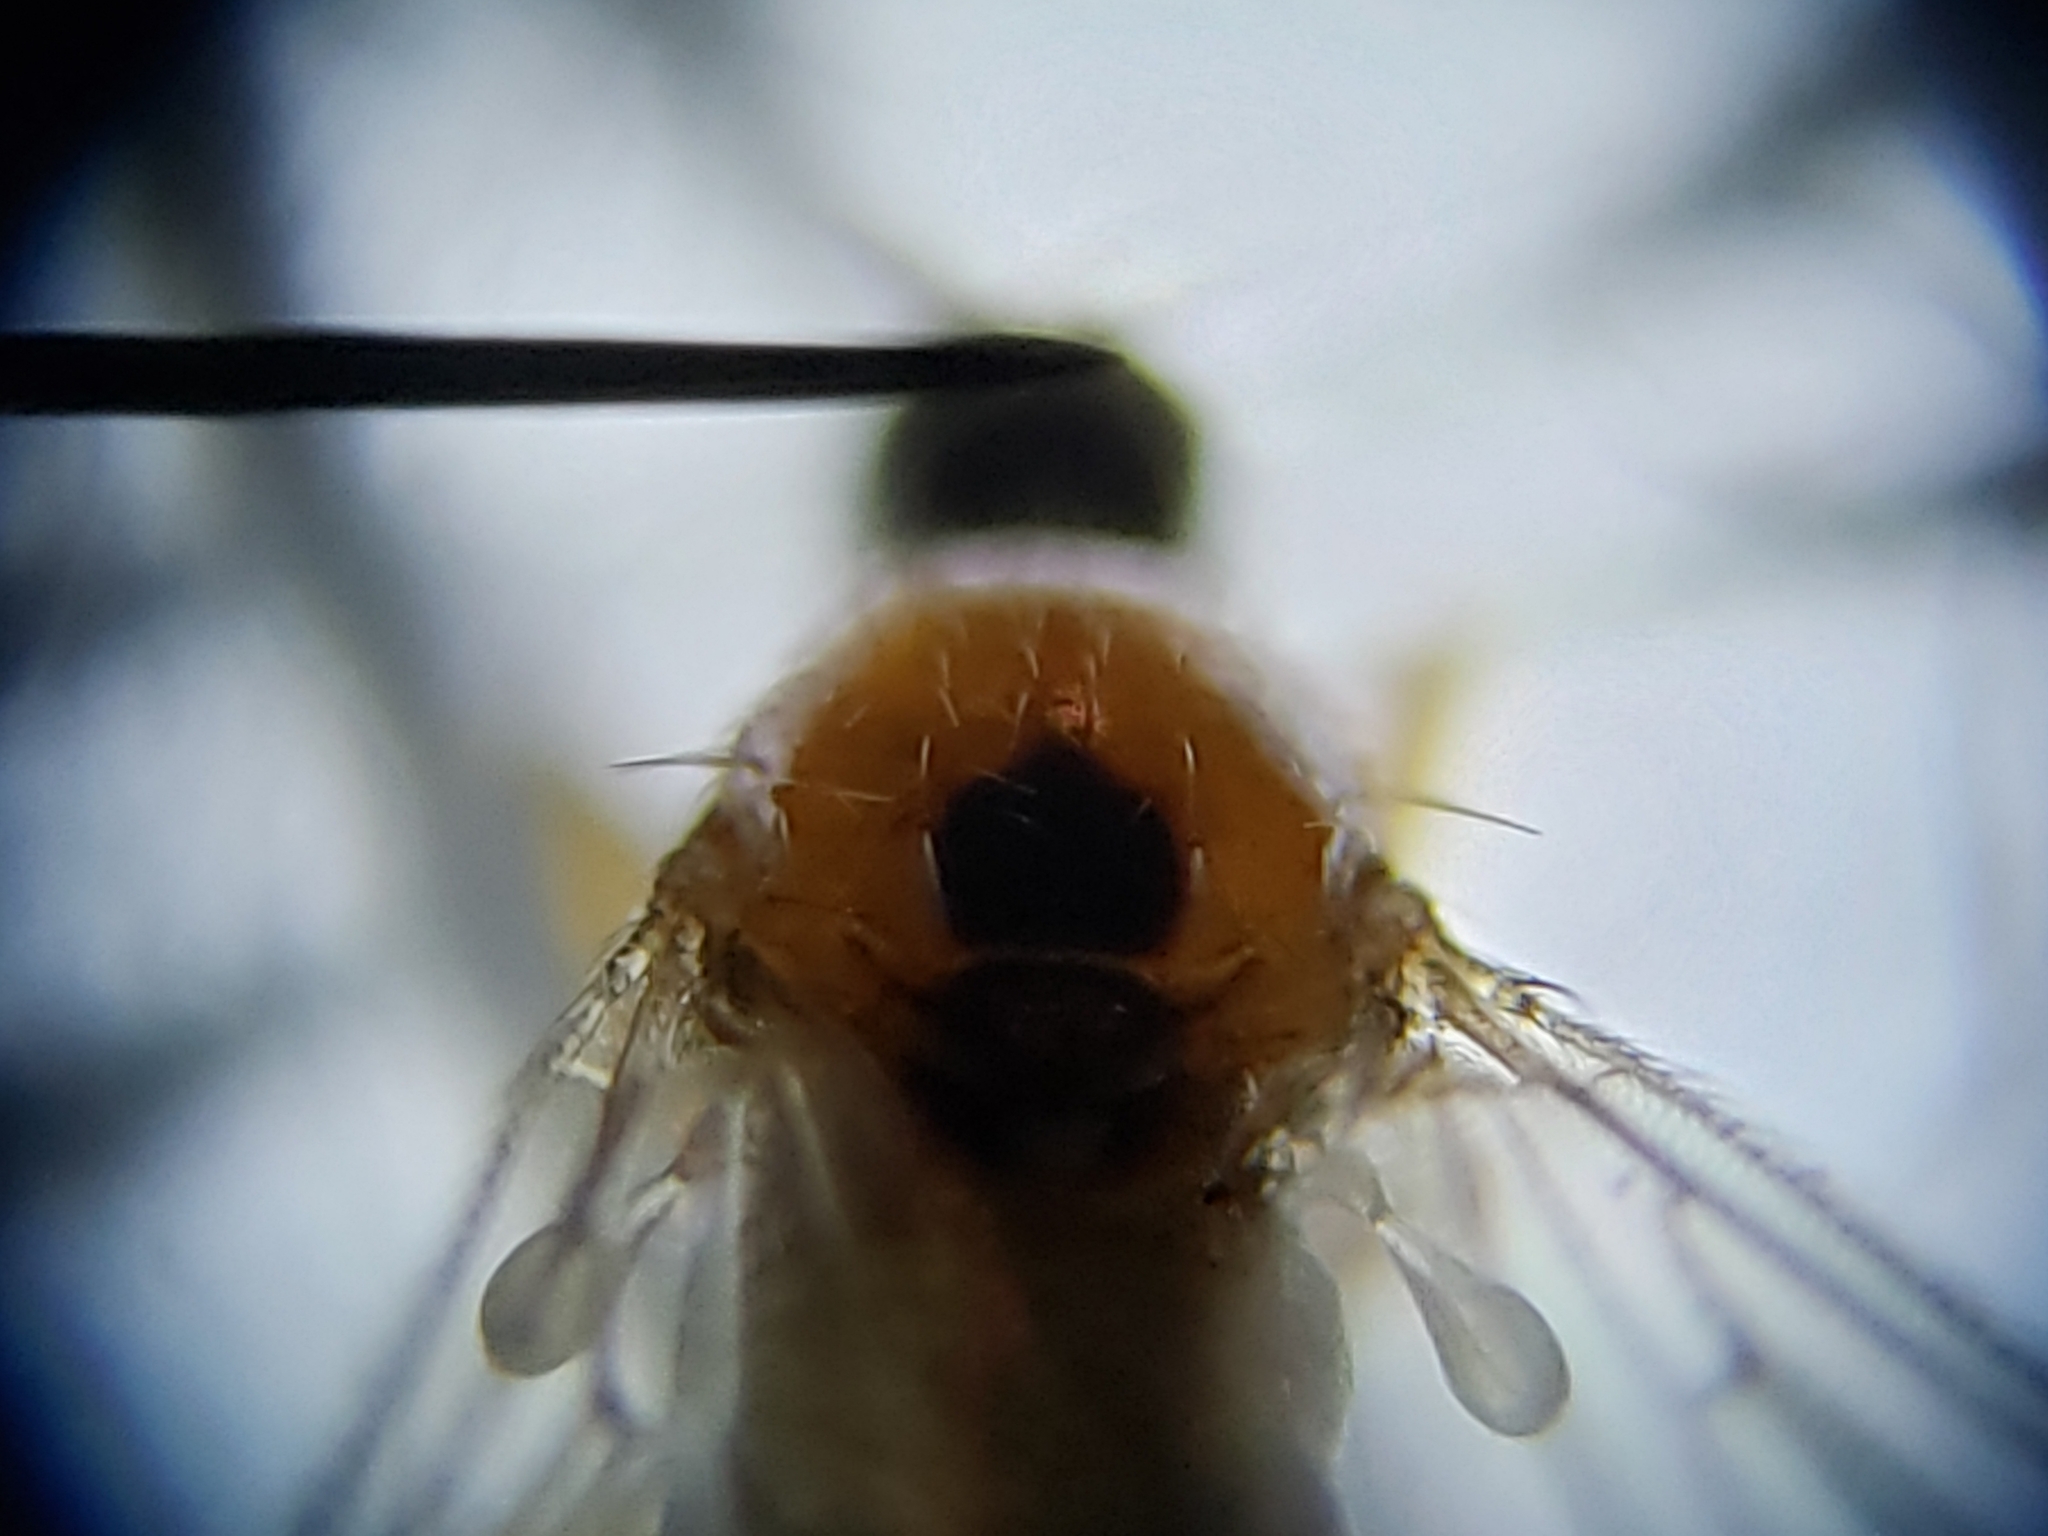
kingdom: Animalia
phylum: Arthropoda
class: Insecta
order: Diptera
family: Hybotidae
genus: Elaphropeza
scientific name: Elaphropeza
